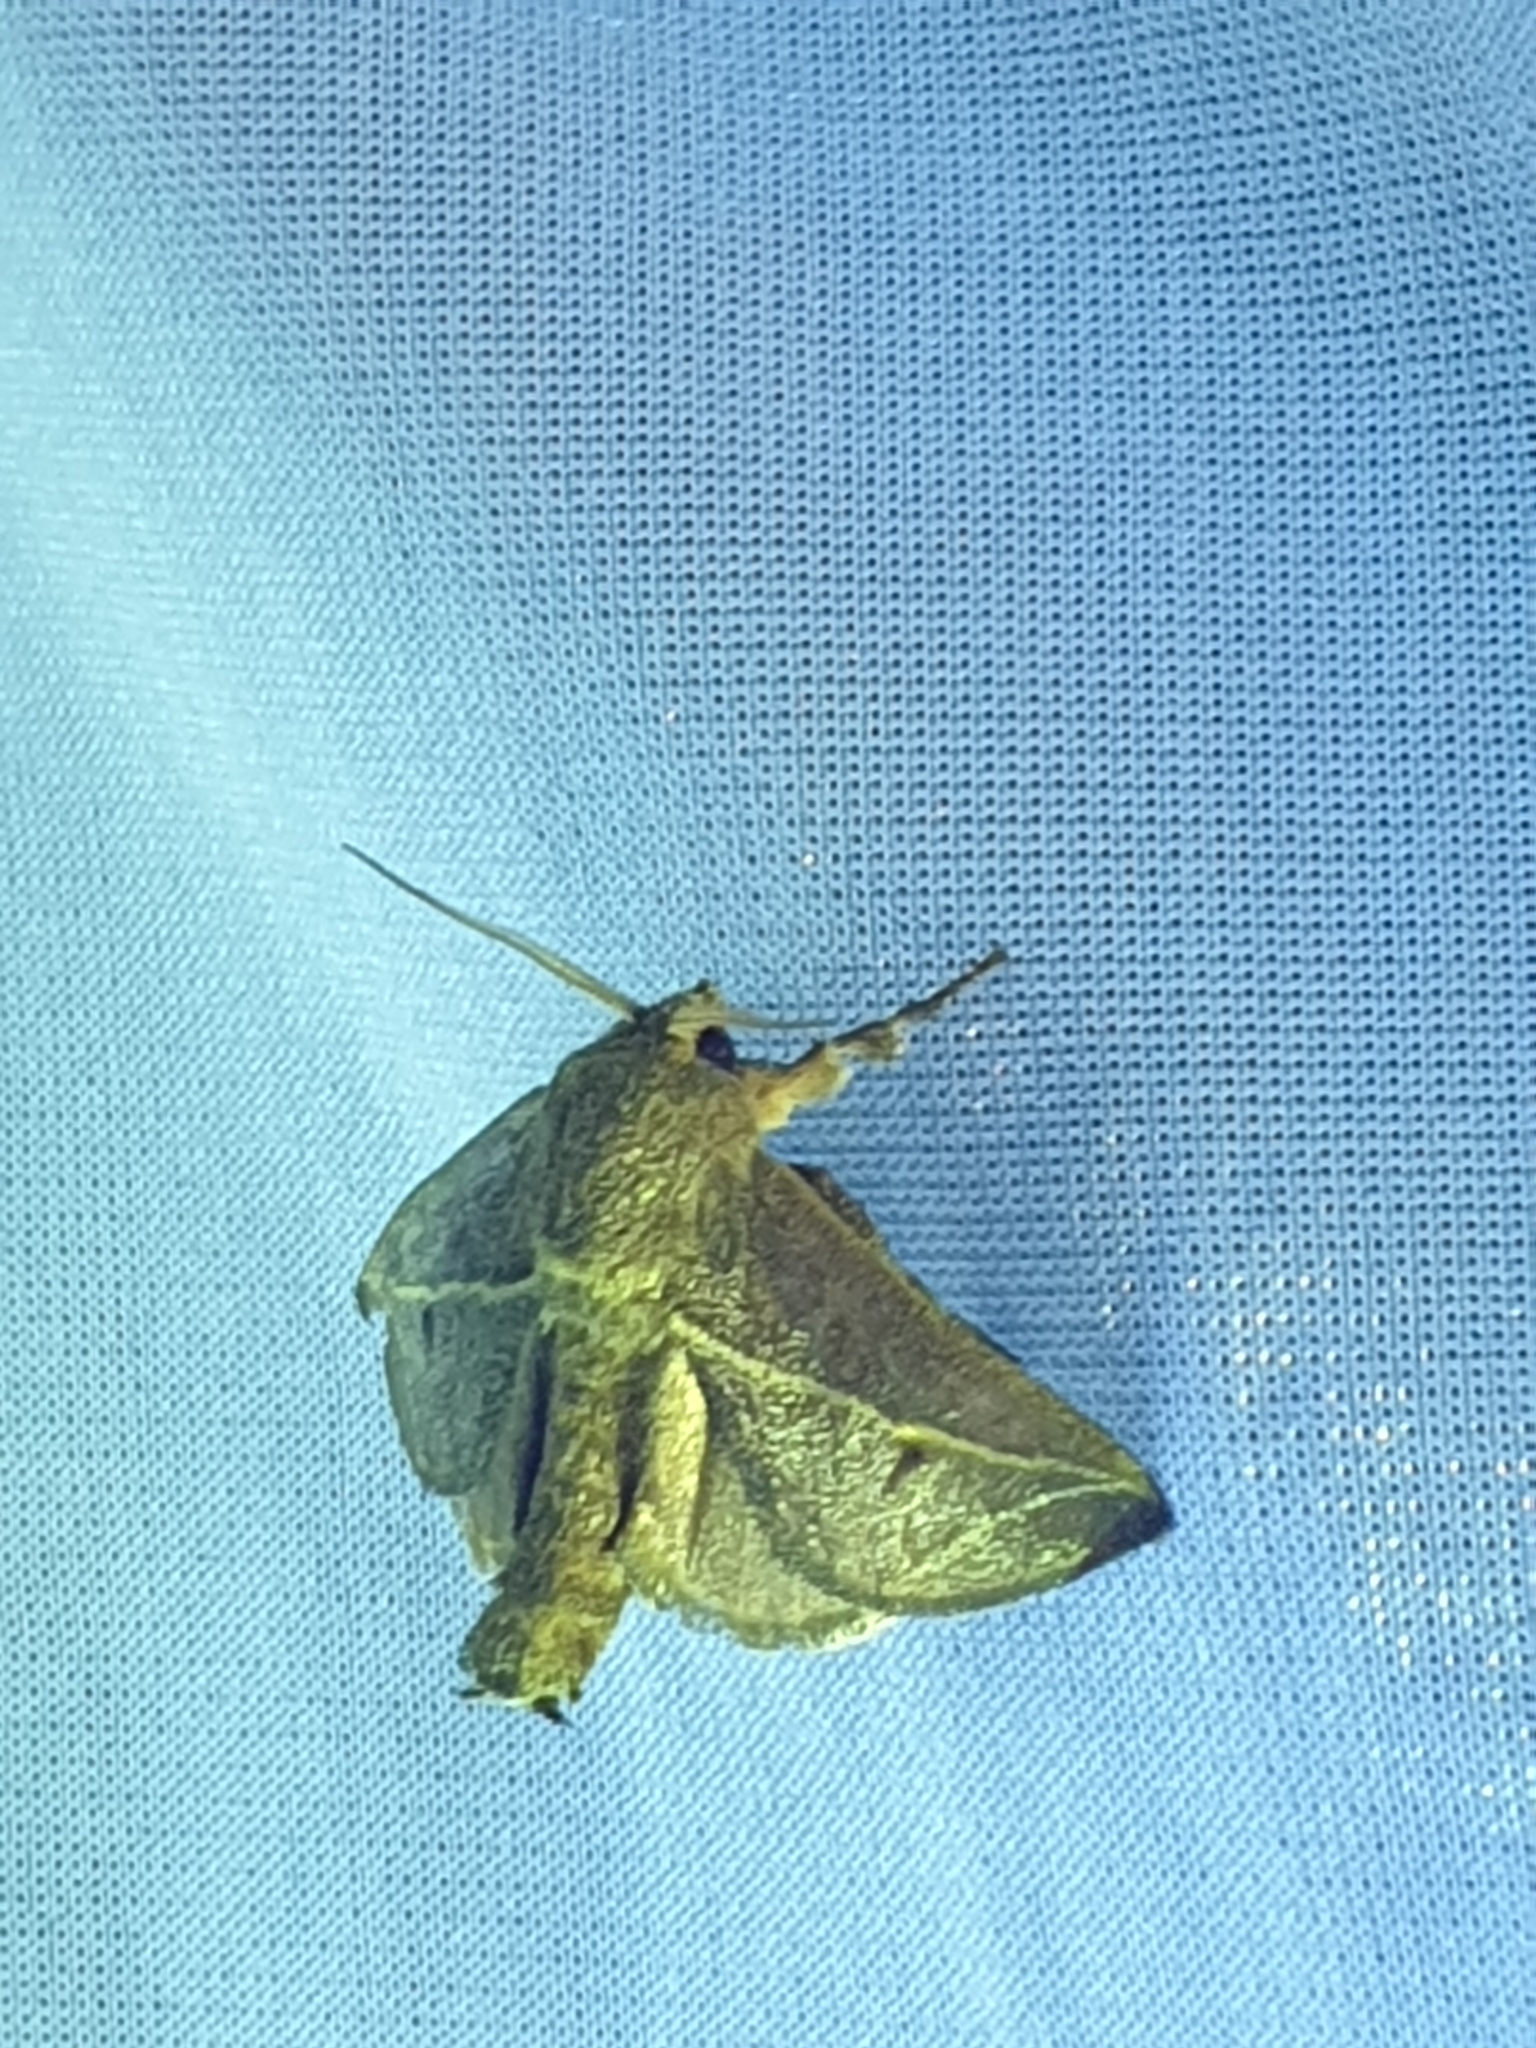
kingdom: Animalia
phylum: Arthropoda
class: Insecta
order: Lepidoptera
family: Limacodidae
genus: Anaxidia
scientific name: Anaxidia lozogramma
